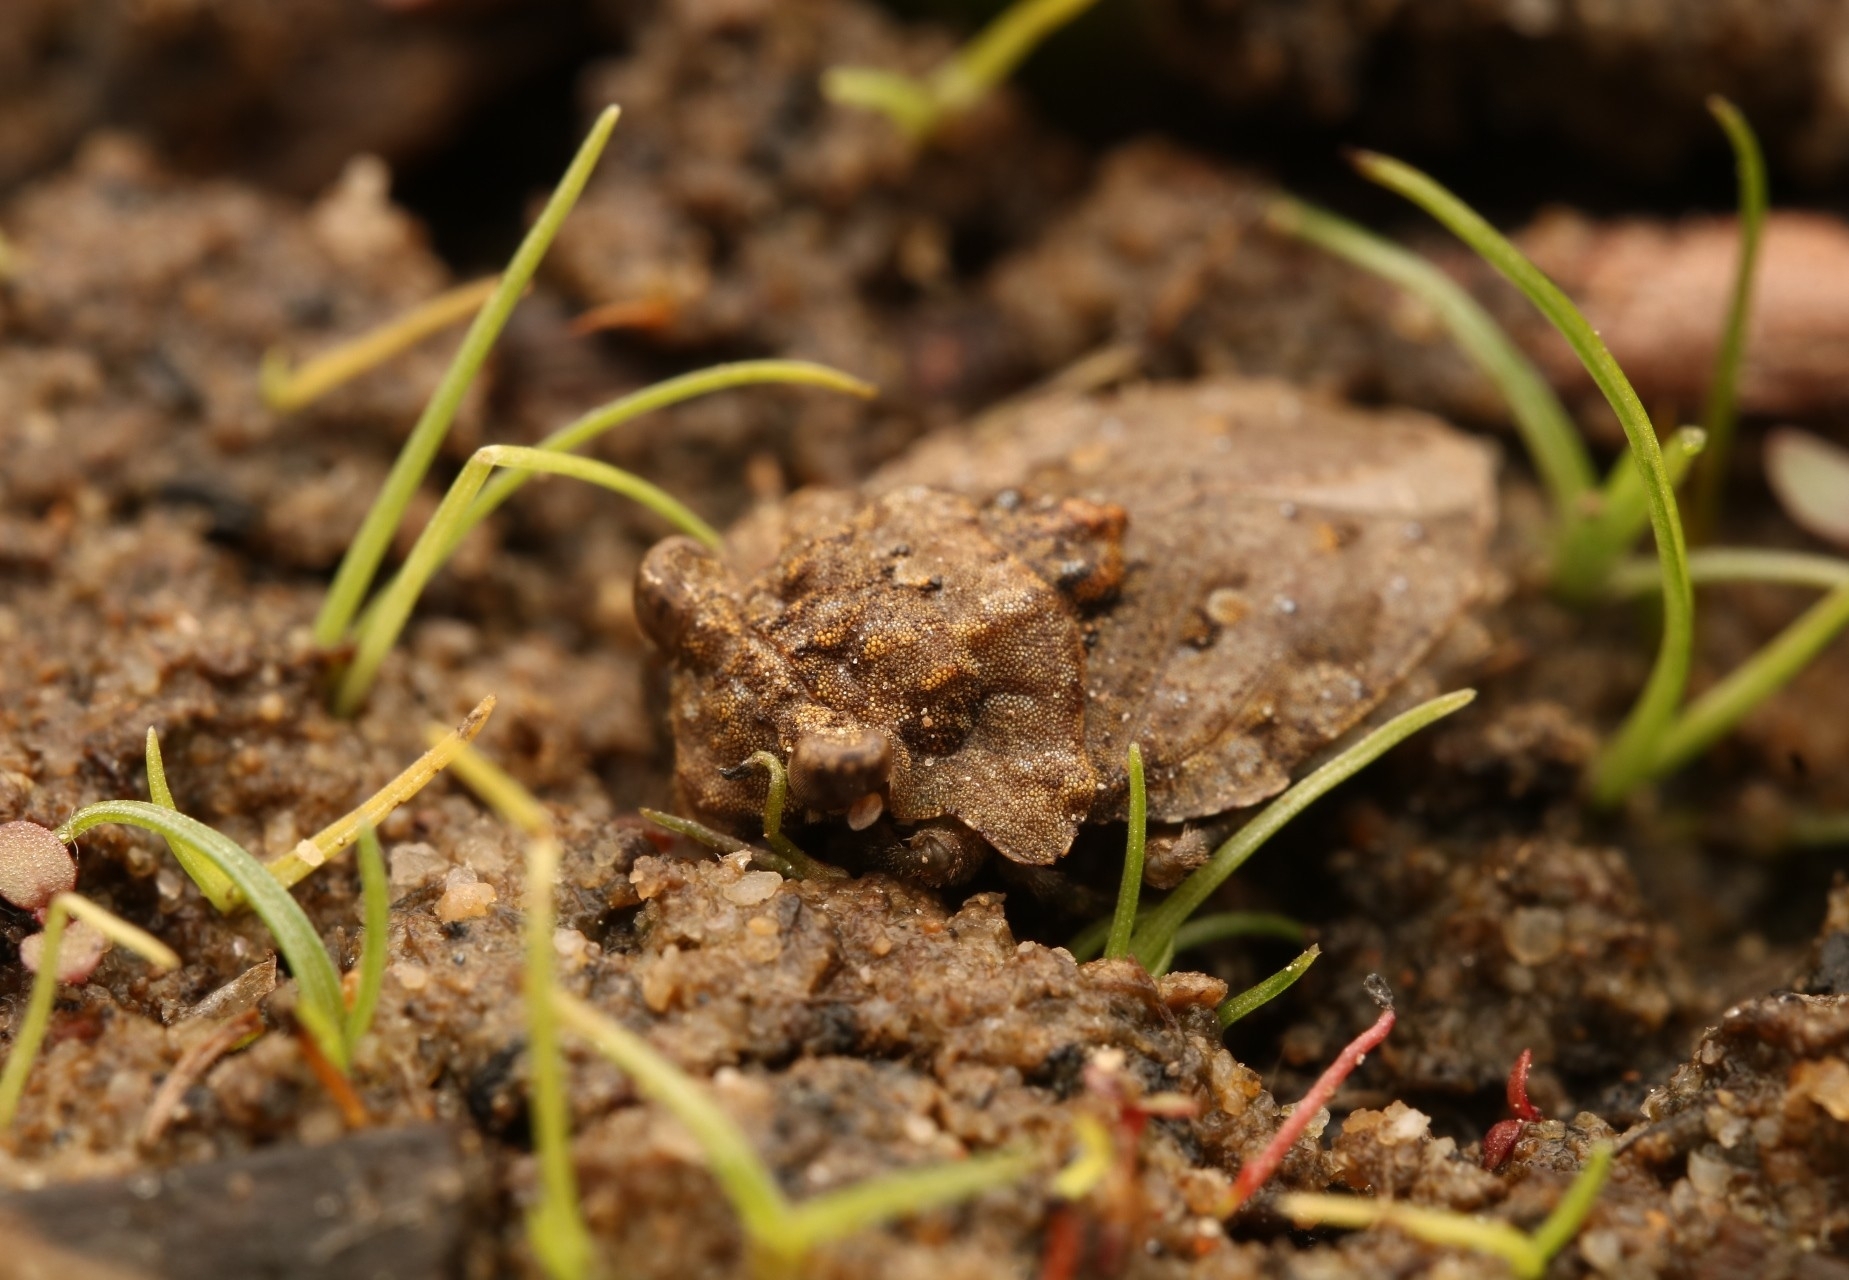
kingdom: Animalia
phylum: Arthropoda
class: Insecta
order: Hemiptera
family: Gelastocoridae
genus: Gelastocoris
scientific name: Gelastocoris oculatus
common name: Toad bug
